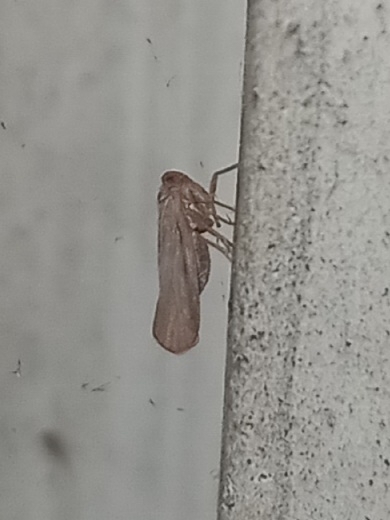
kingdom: Animalia
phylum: Arthropoda
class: Insecta
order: Hemiptera
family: Derbidae
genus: Omolicna
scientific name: Omolicna mcateei
